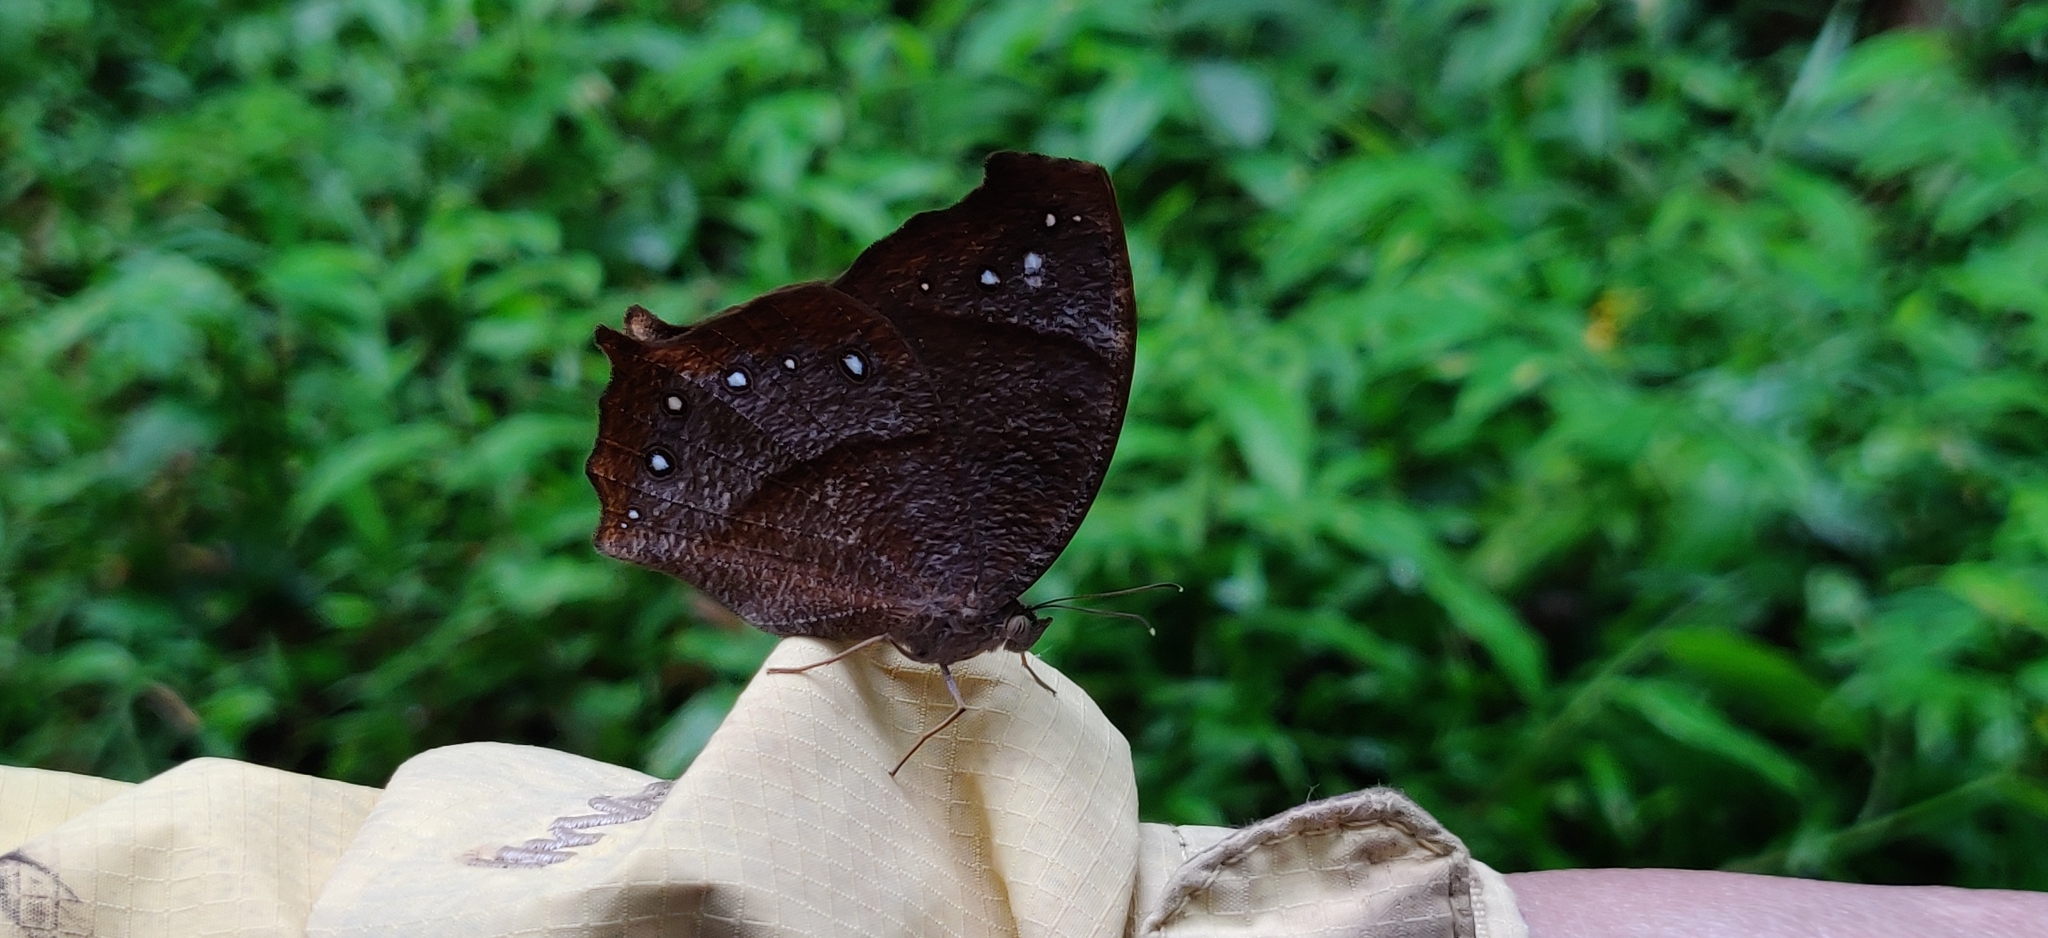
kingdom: Animalia
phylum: Arthropoda
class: Insecta
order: Lepidoptera
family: Nymphalidae
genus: Melanitis
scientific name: Melanitis phedima
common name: Dark evening brown
